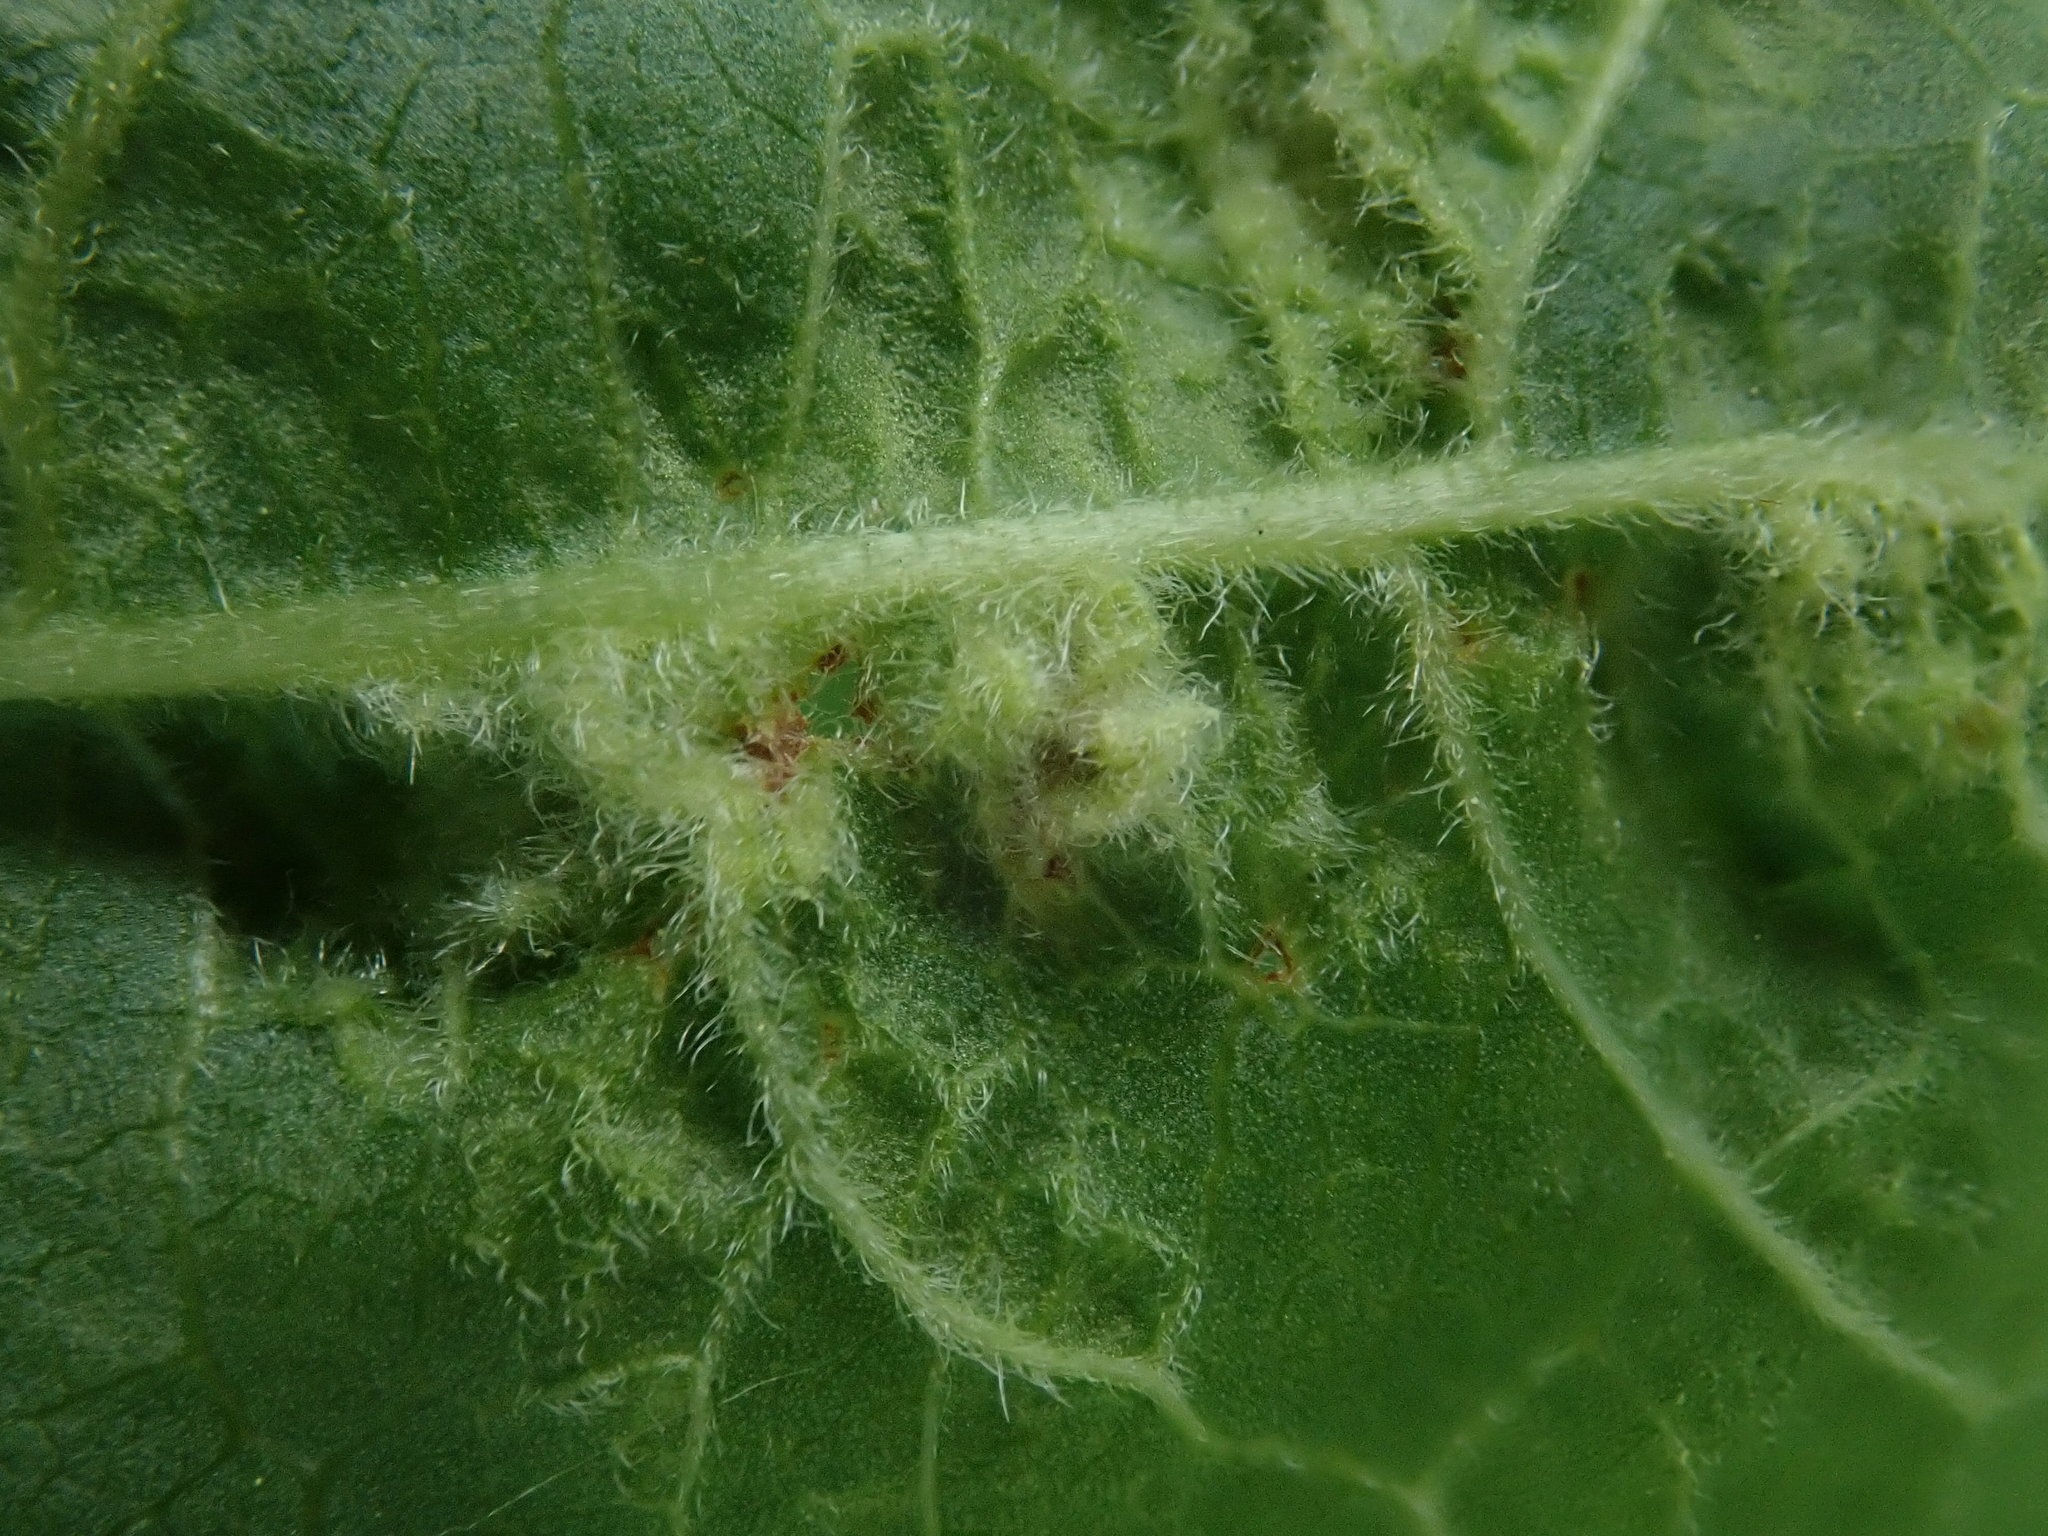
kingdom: Animalia
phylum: Arthropoda
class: Arachnida
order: Trombidiformes
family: Eriophyidae
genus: Aceria
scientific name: Aceria
